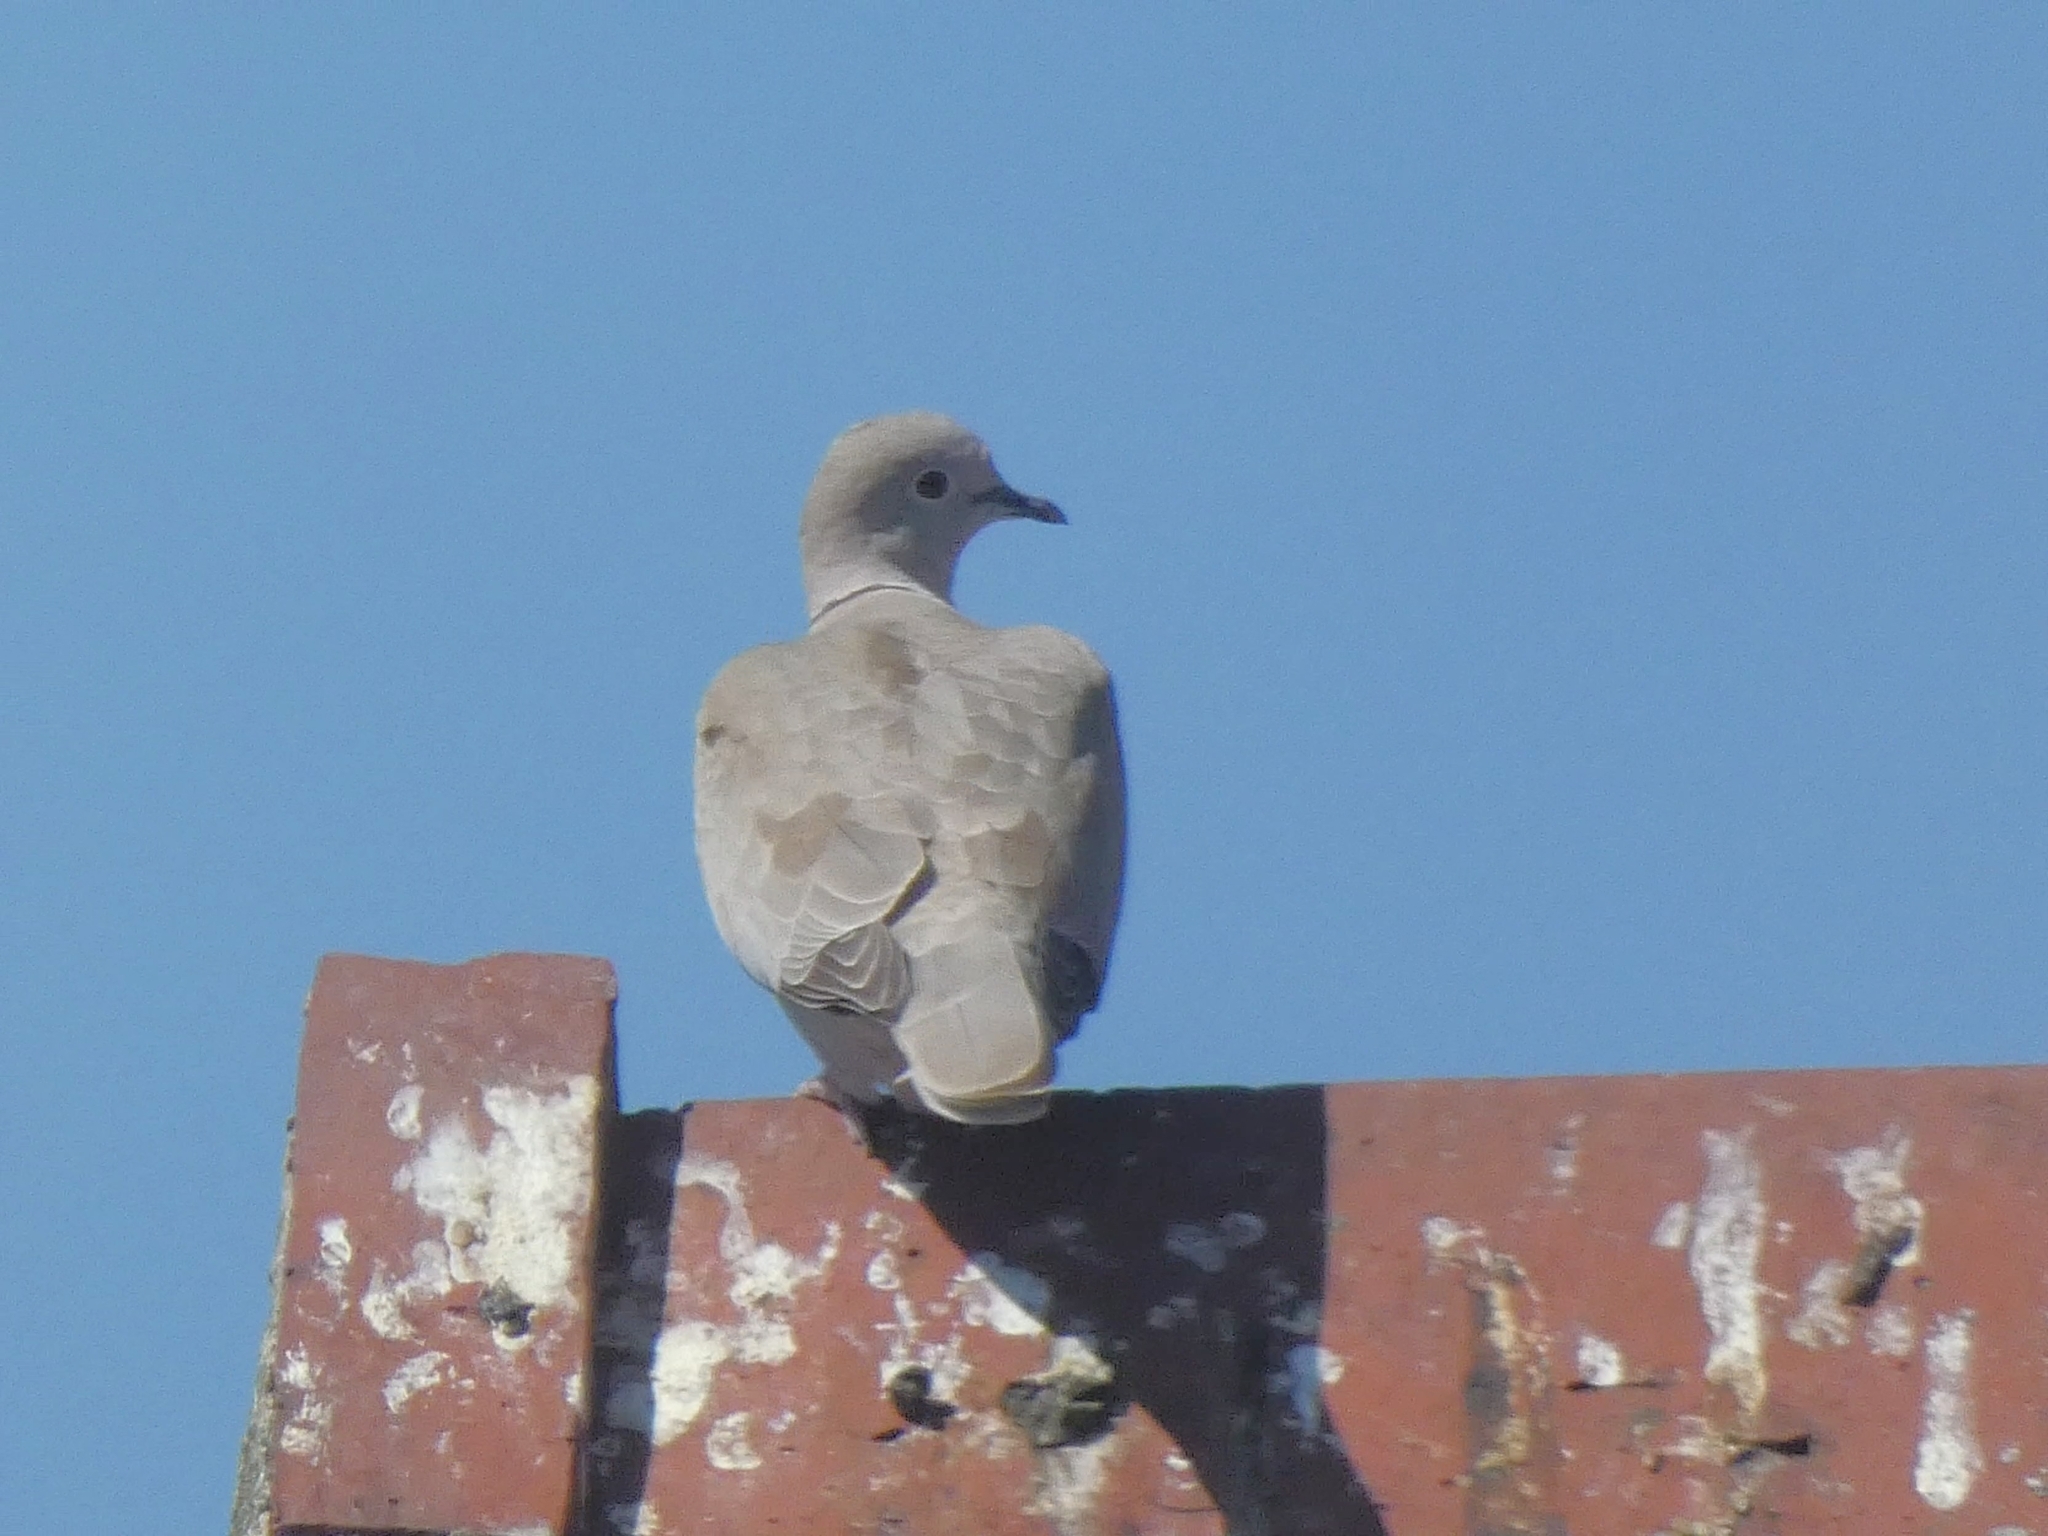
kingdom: Animalia
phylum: Chordata
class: Aves
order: Columbiformes
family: Columbidae
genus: Streptopelia
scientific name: Streptopelia decaocto
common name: Eurasian collared dove
